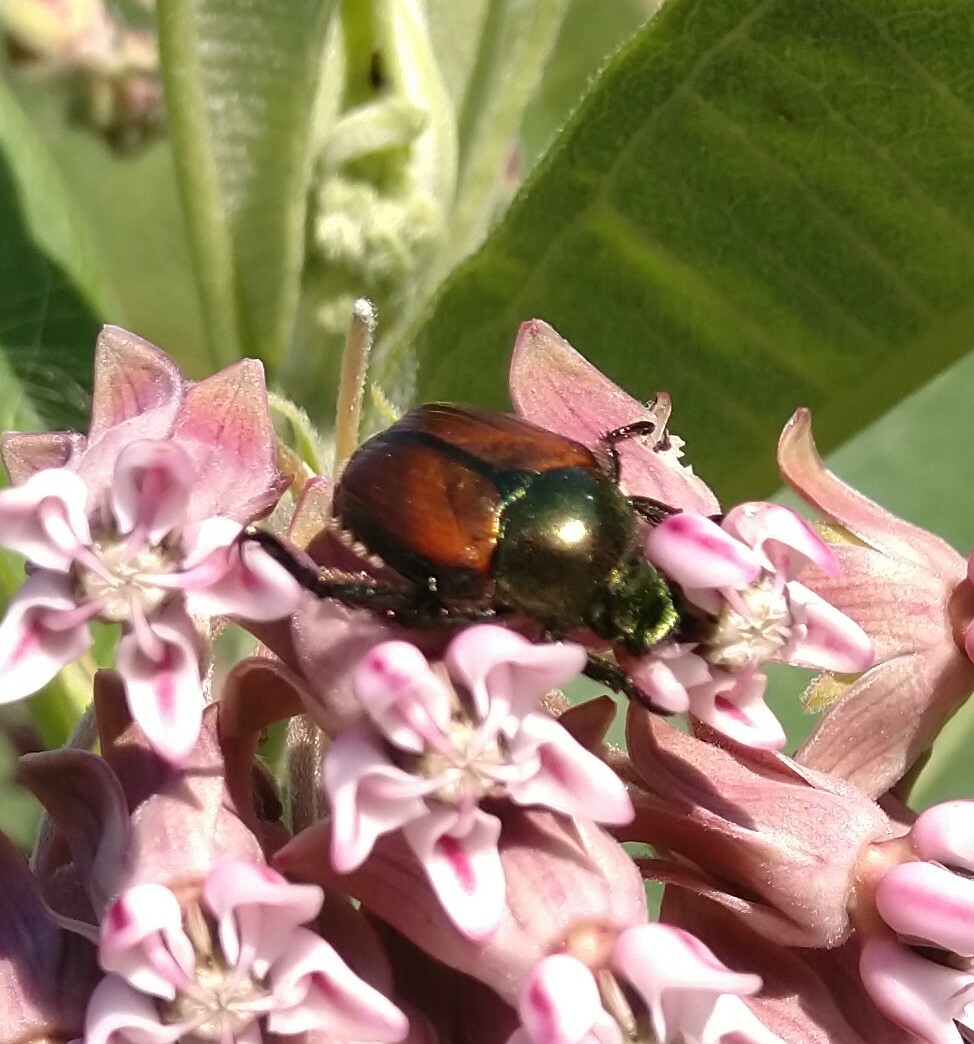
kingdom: Animalia
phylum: Arthropoda
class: Insecta
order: Coleoptera
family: Scarabaeidae
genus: Popillia
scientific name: Popillia japonica
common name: Japanese beetle
